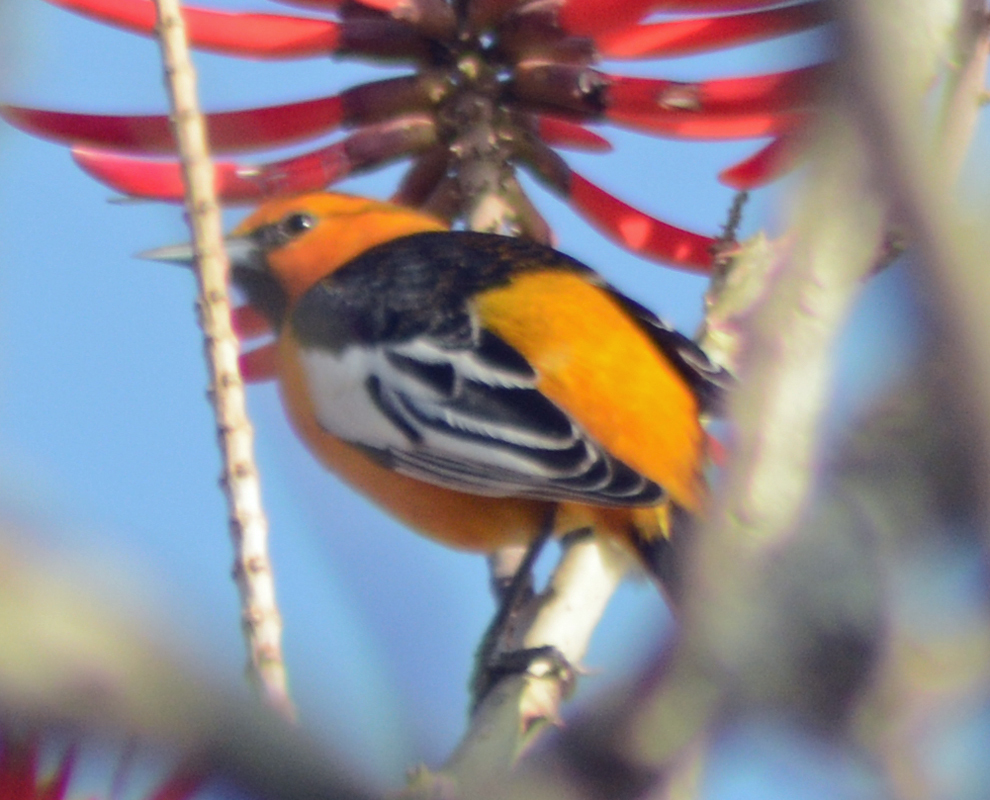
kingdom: Animalia
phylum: Chordata
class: Aves
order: Passeriformes
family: Icteridae
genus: Icterus
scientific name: Icterus bullockii
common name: Bullock's oriole
